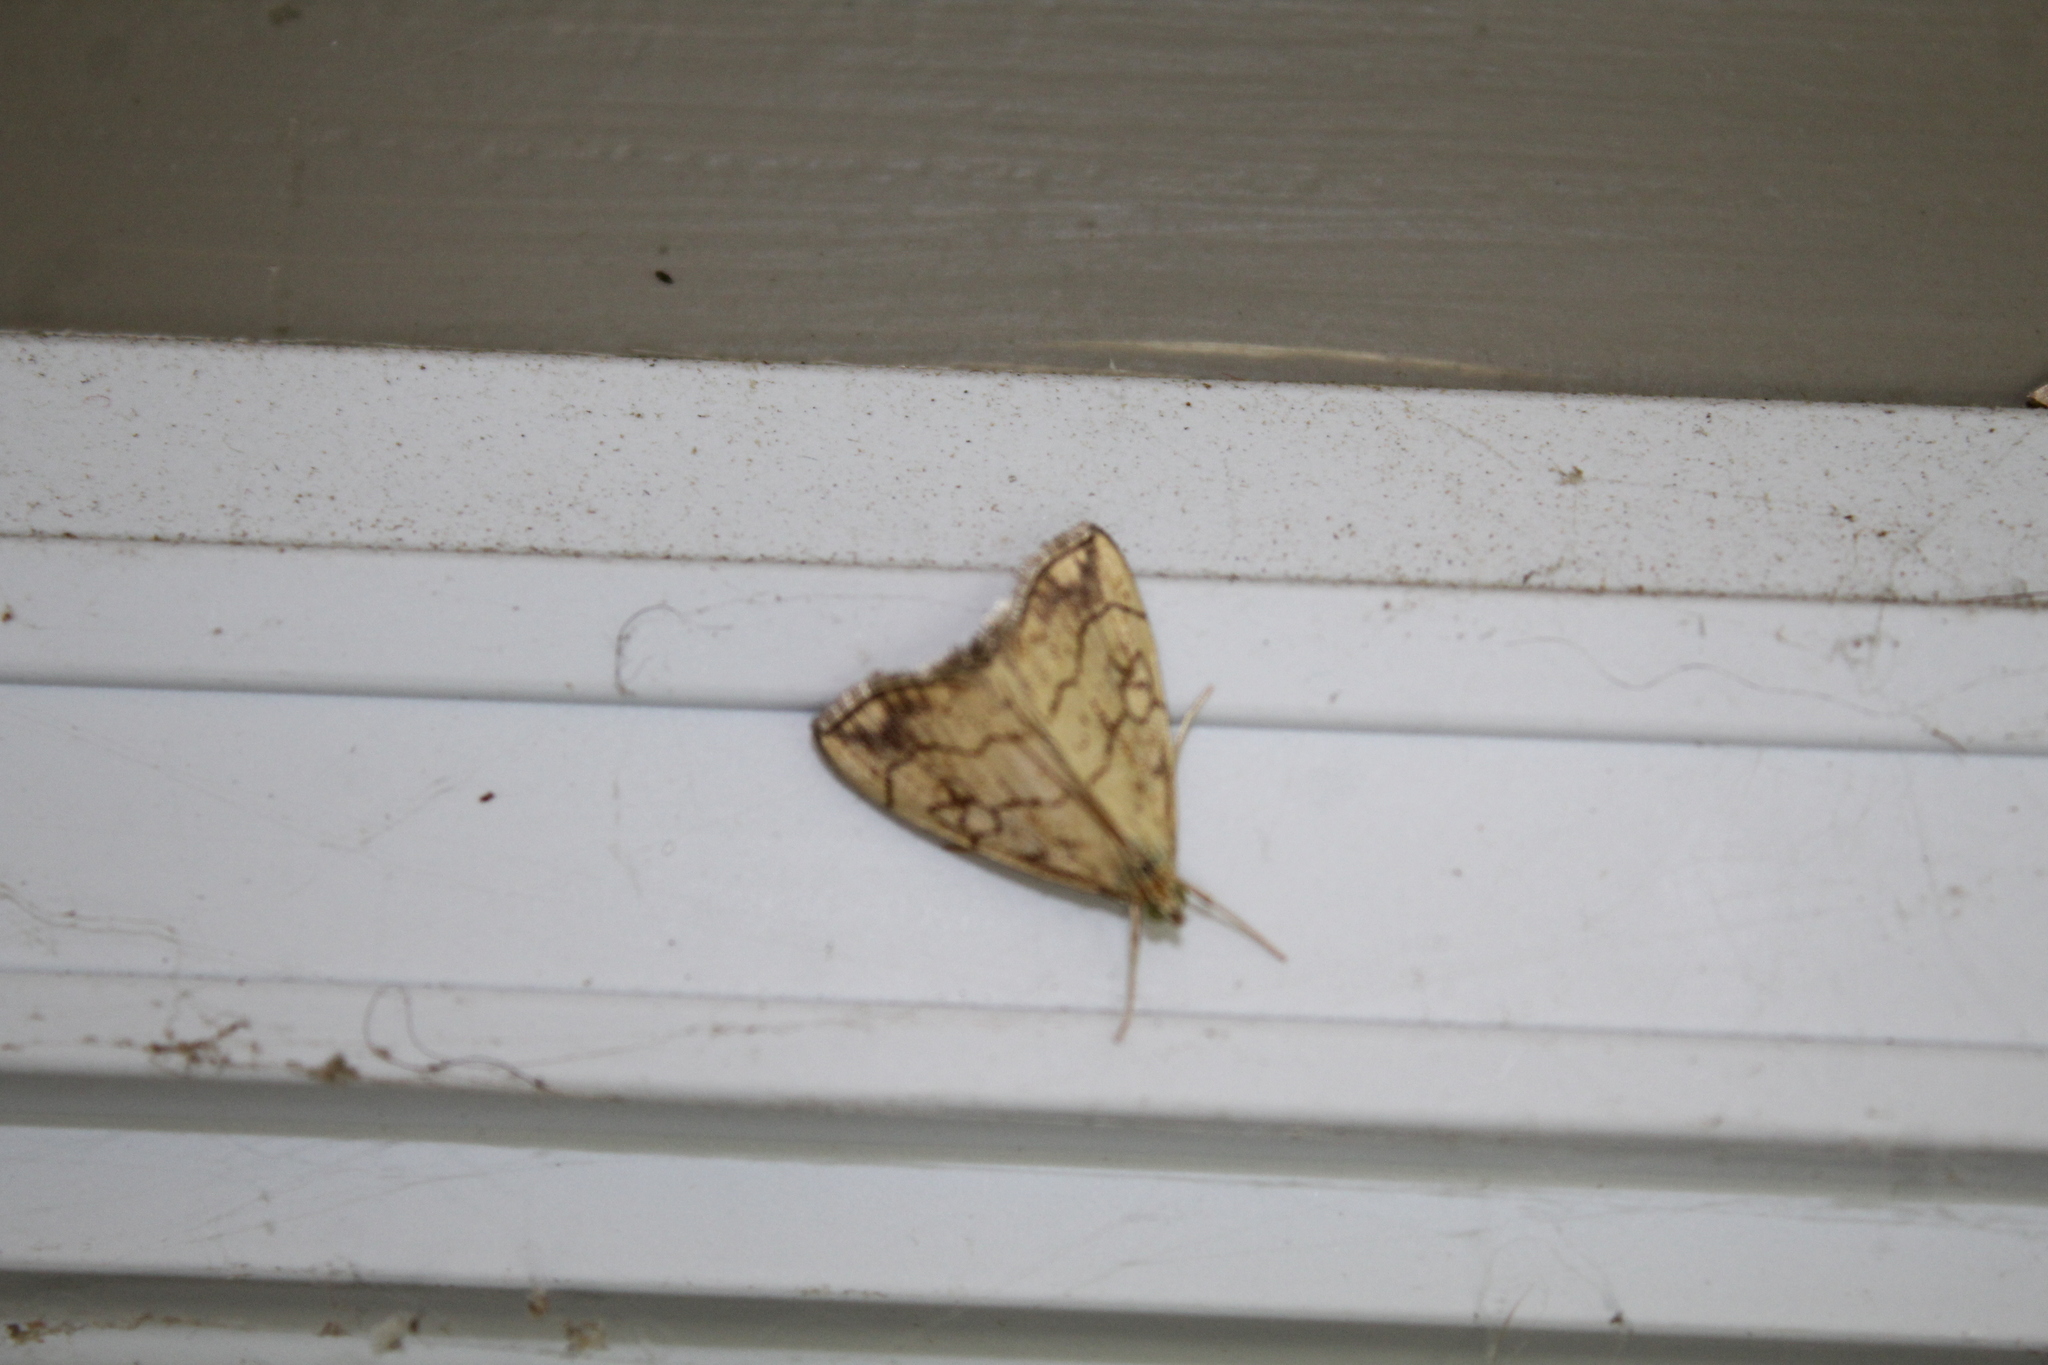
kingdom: Animalia
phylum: Arthropoda
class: Insecta
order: Lepidoptera
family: Crambidae
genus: Evergestis
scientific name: Evergestis pallidata
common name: Chequered pearl
